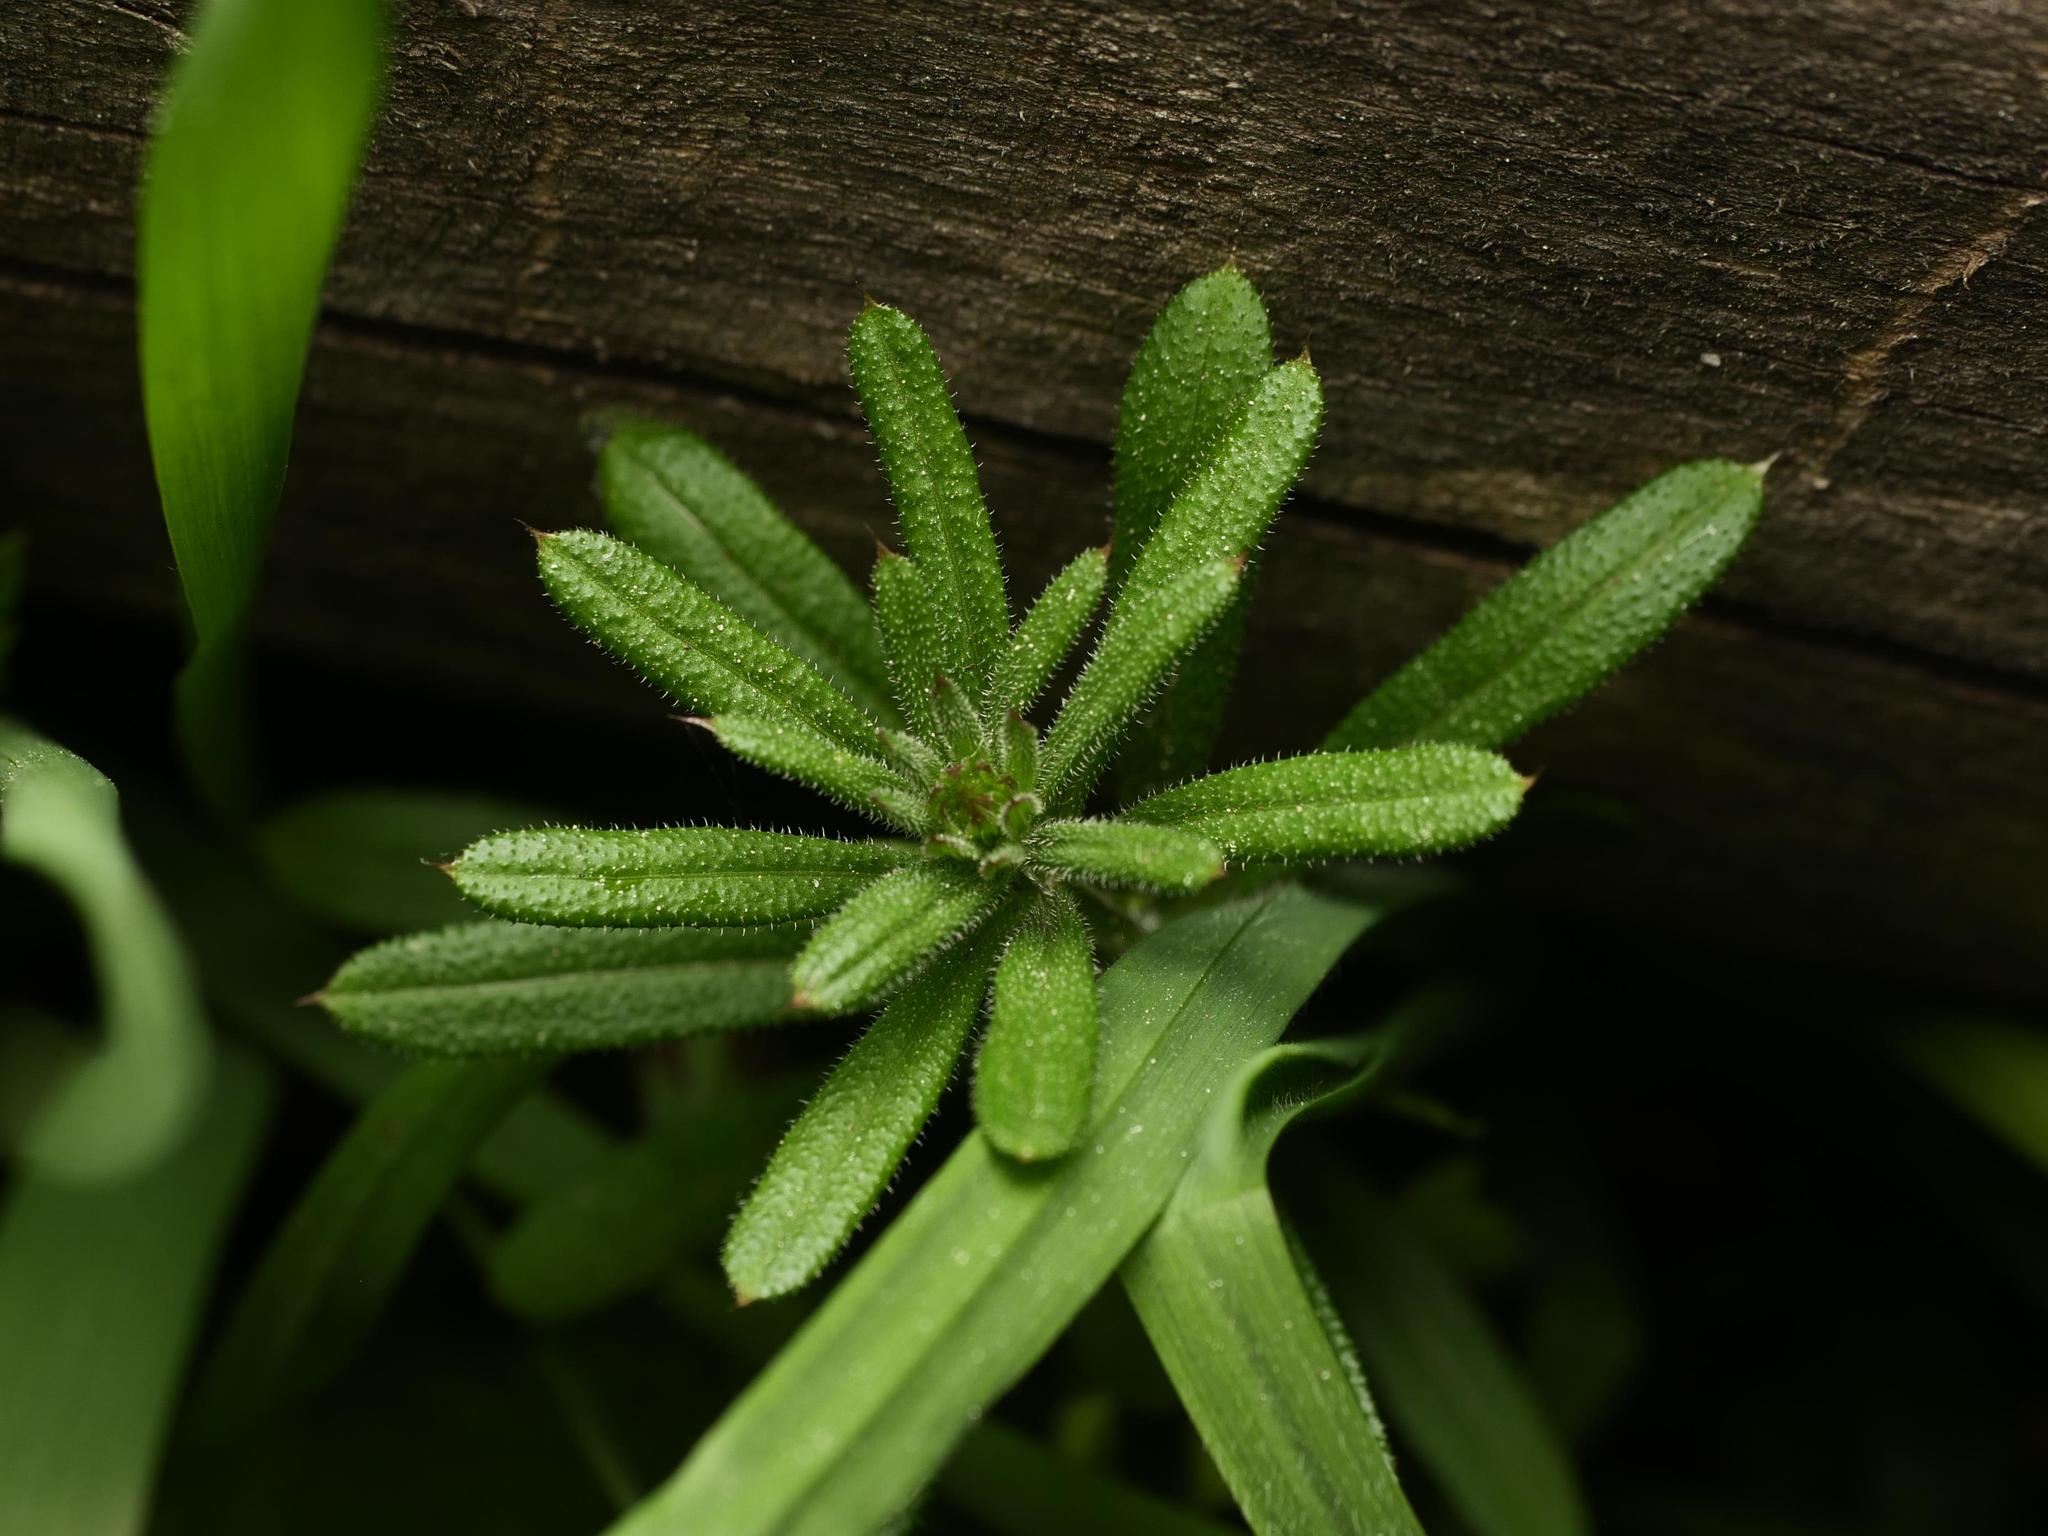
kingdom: Plantae
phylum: Tracheophyta
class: Magnoliopsida
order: Gentianales
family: Rubiaceae
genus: Galium
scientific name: Galium aparine
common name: Cleavers
